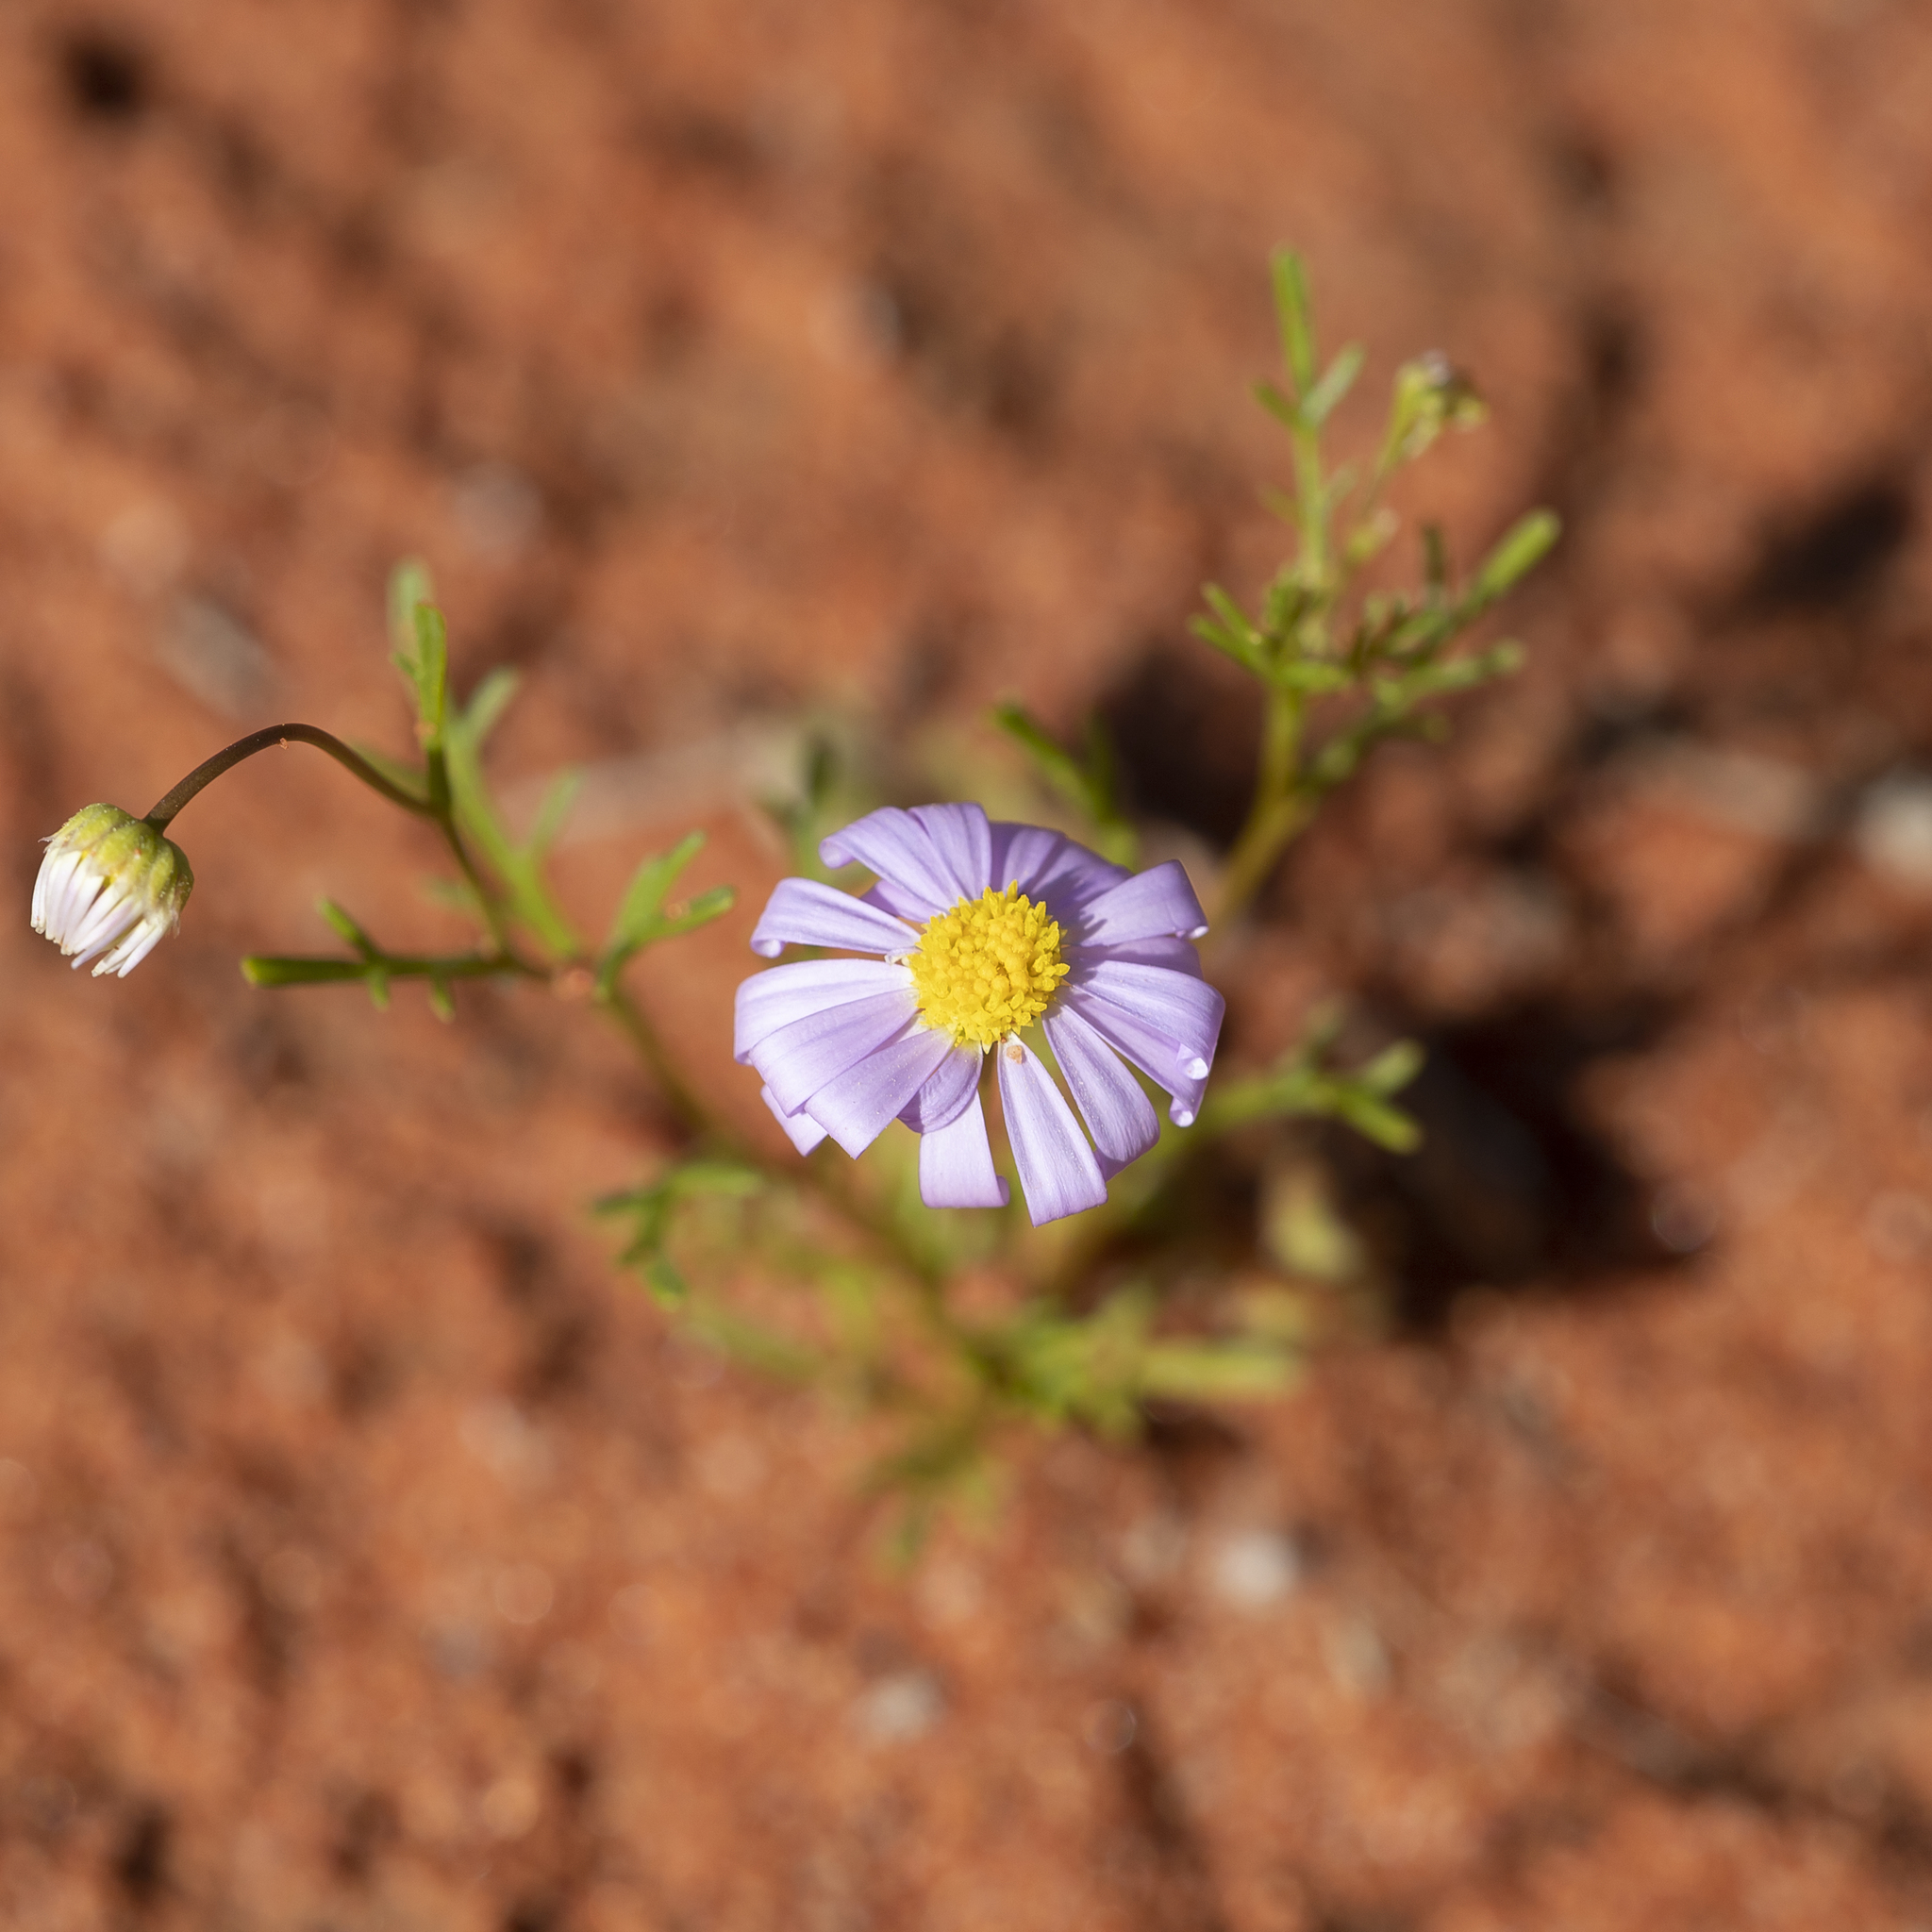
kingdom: Plantae
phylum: Tracheophyta
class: Magnoliopsida
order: Asterales
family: Asteraceae
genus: Brachyscome
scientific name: Brachyscome gilesii
